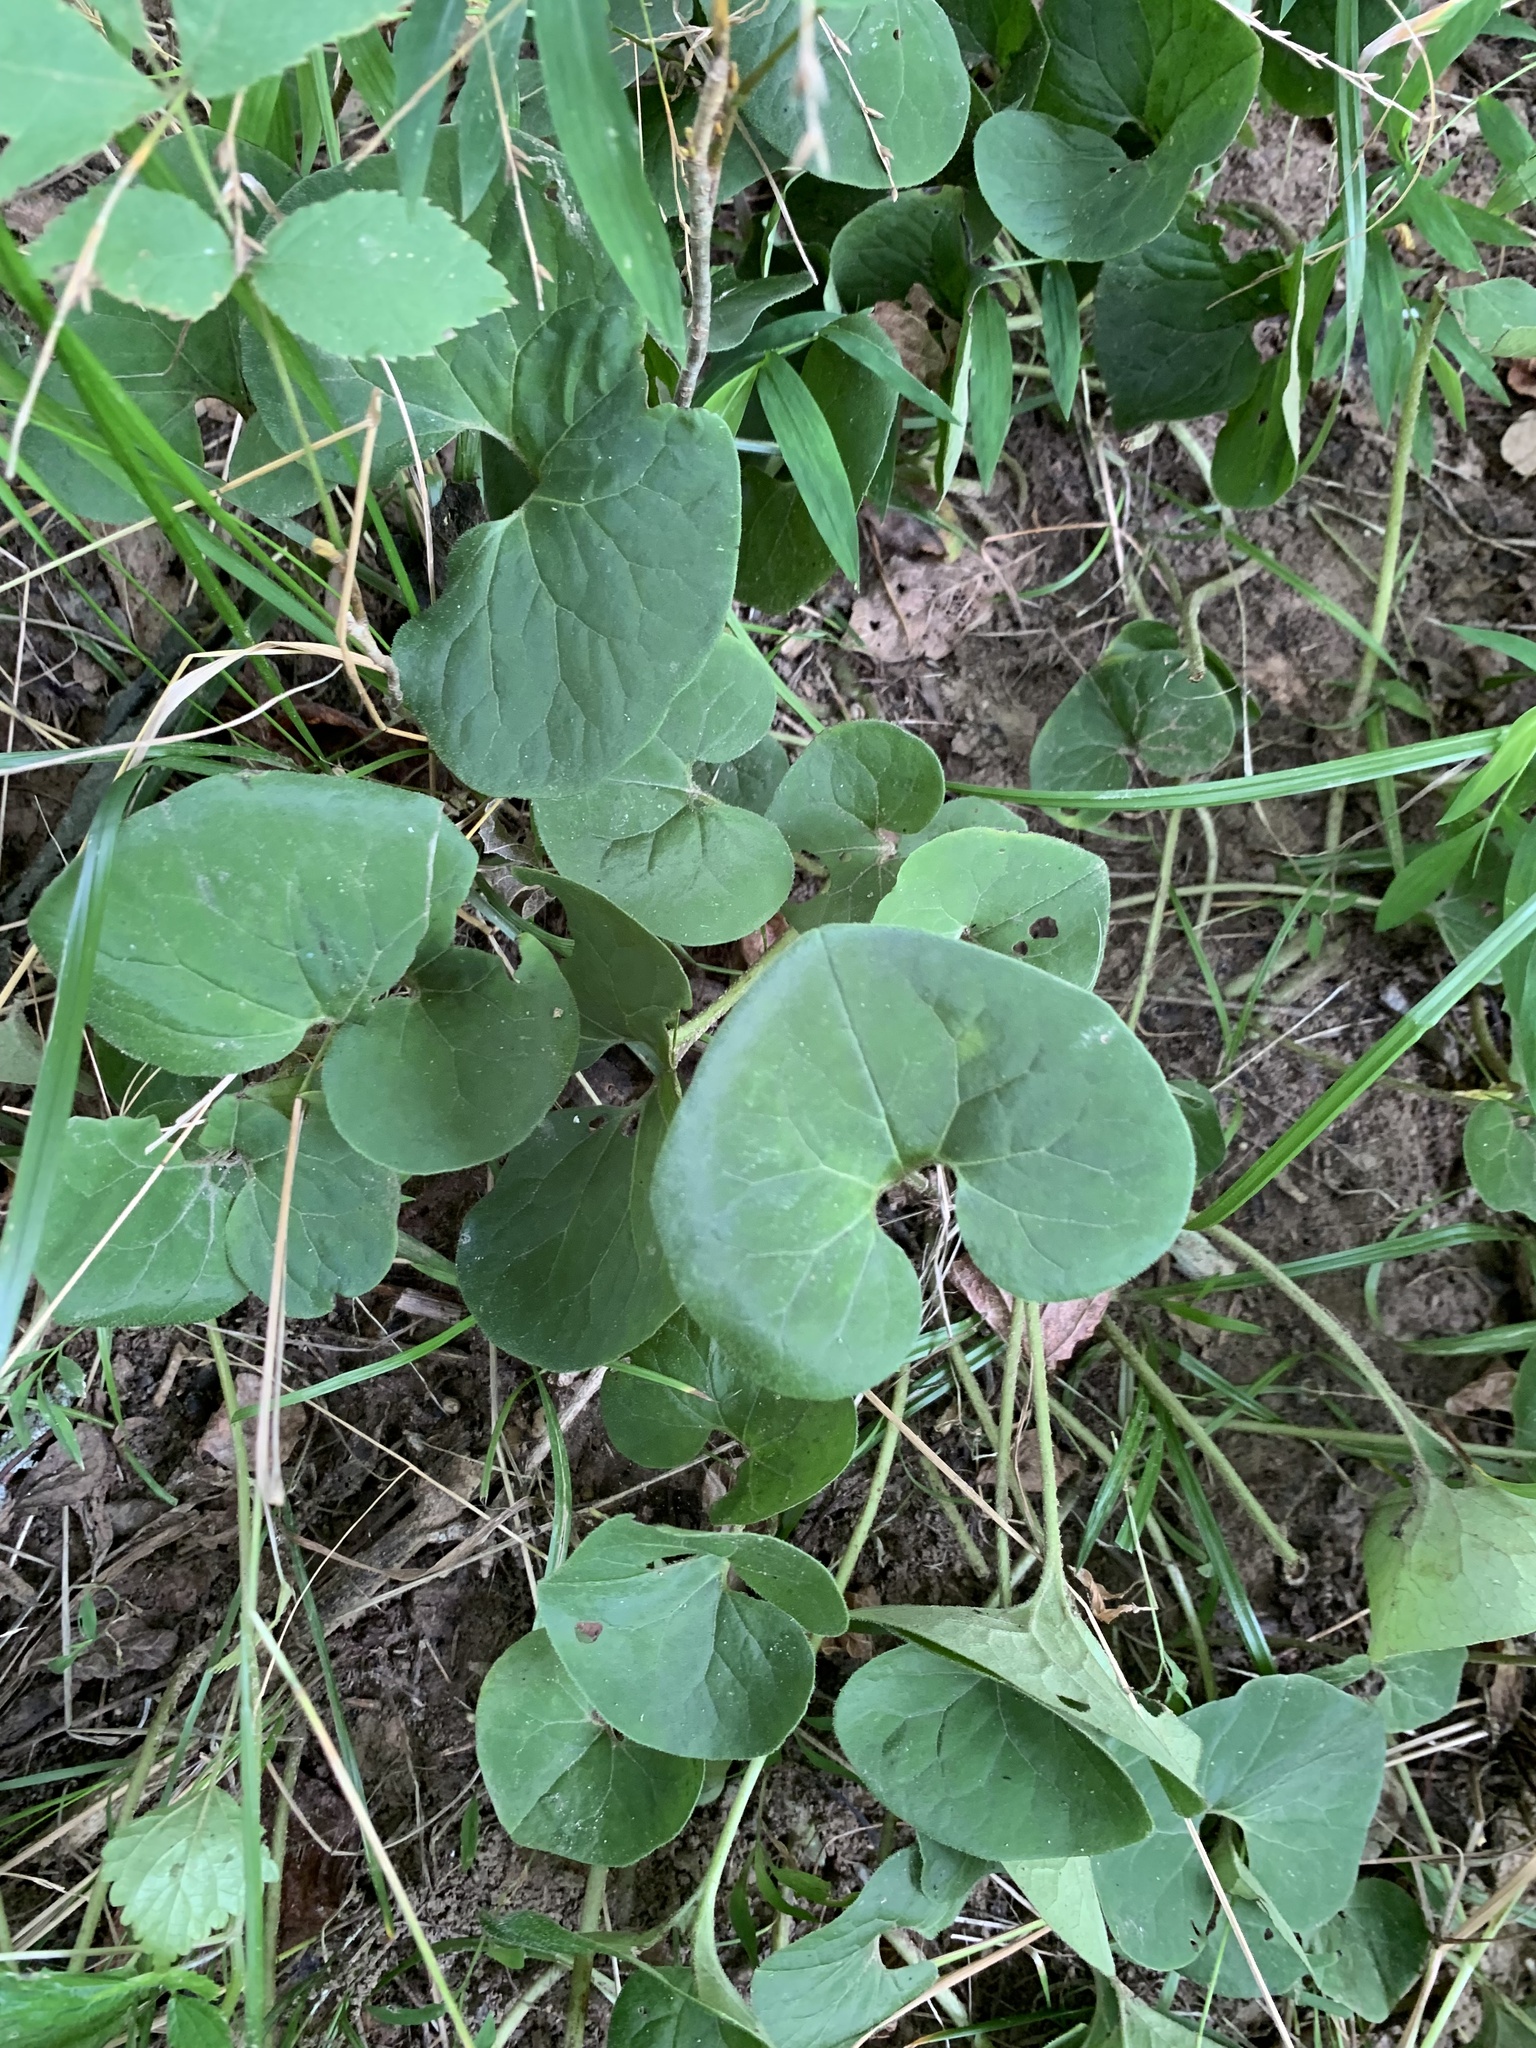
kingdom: Plantae
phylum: Tracheophyta
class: Magnoliopsida
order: Piperales
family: Aristolochiaceae
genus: Asarum
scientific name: Asarum canadense
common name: Wild ginger
